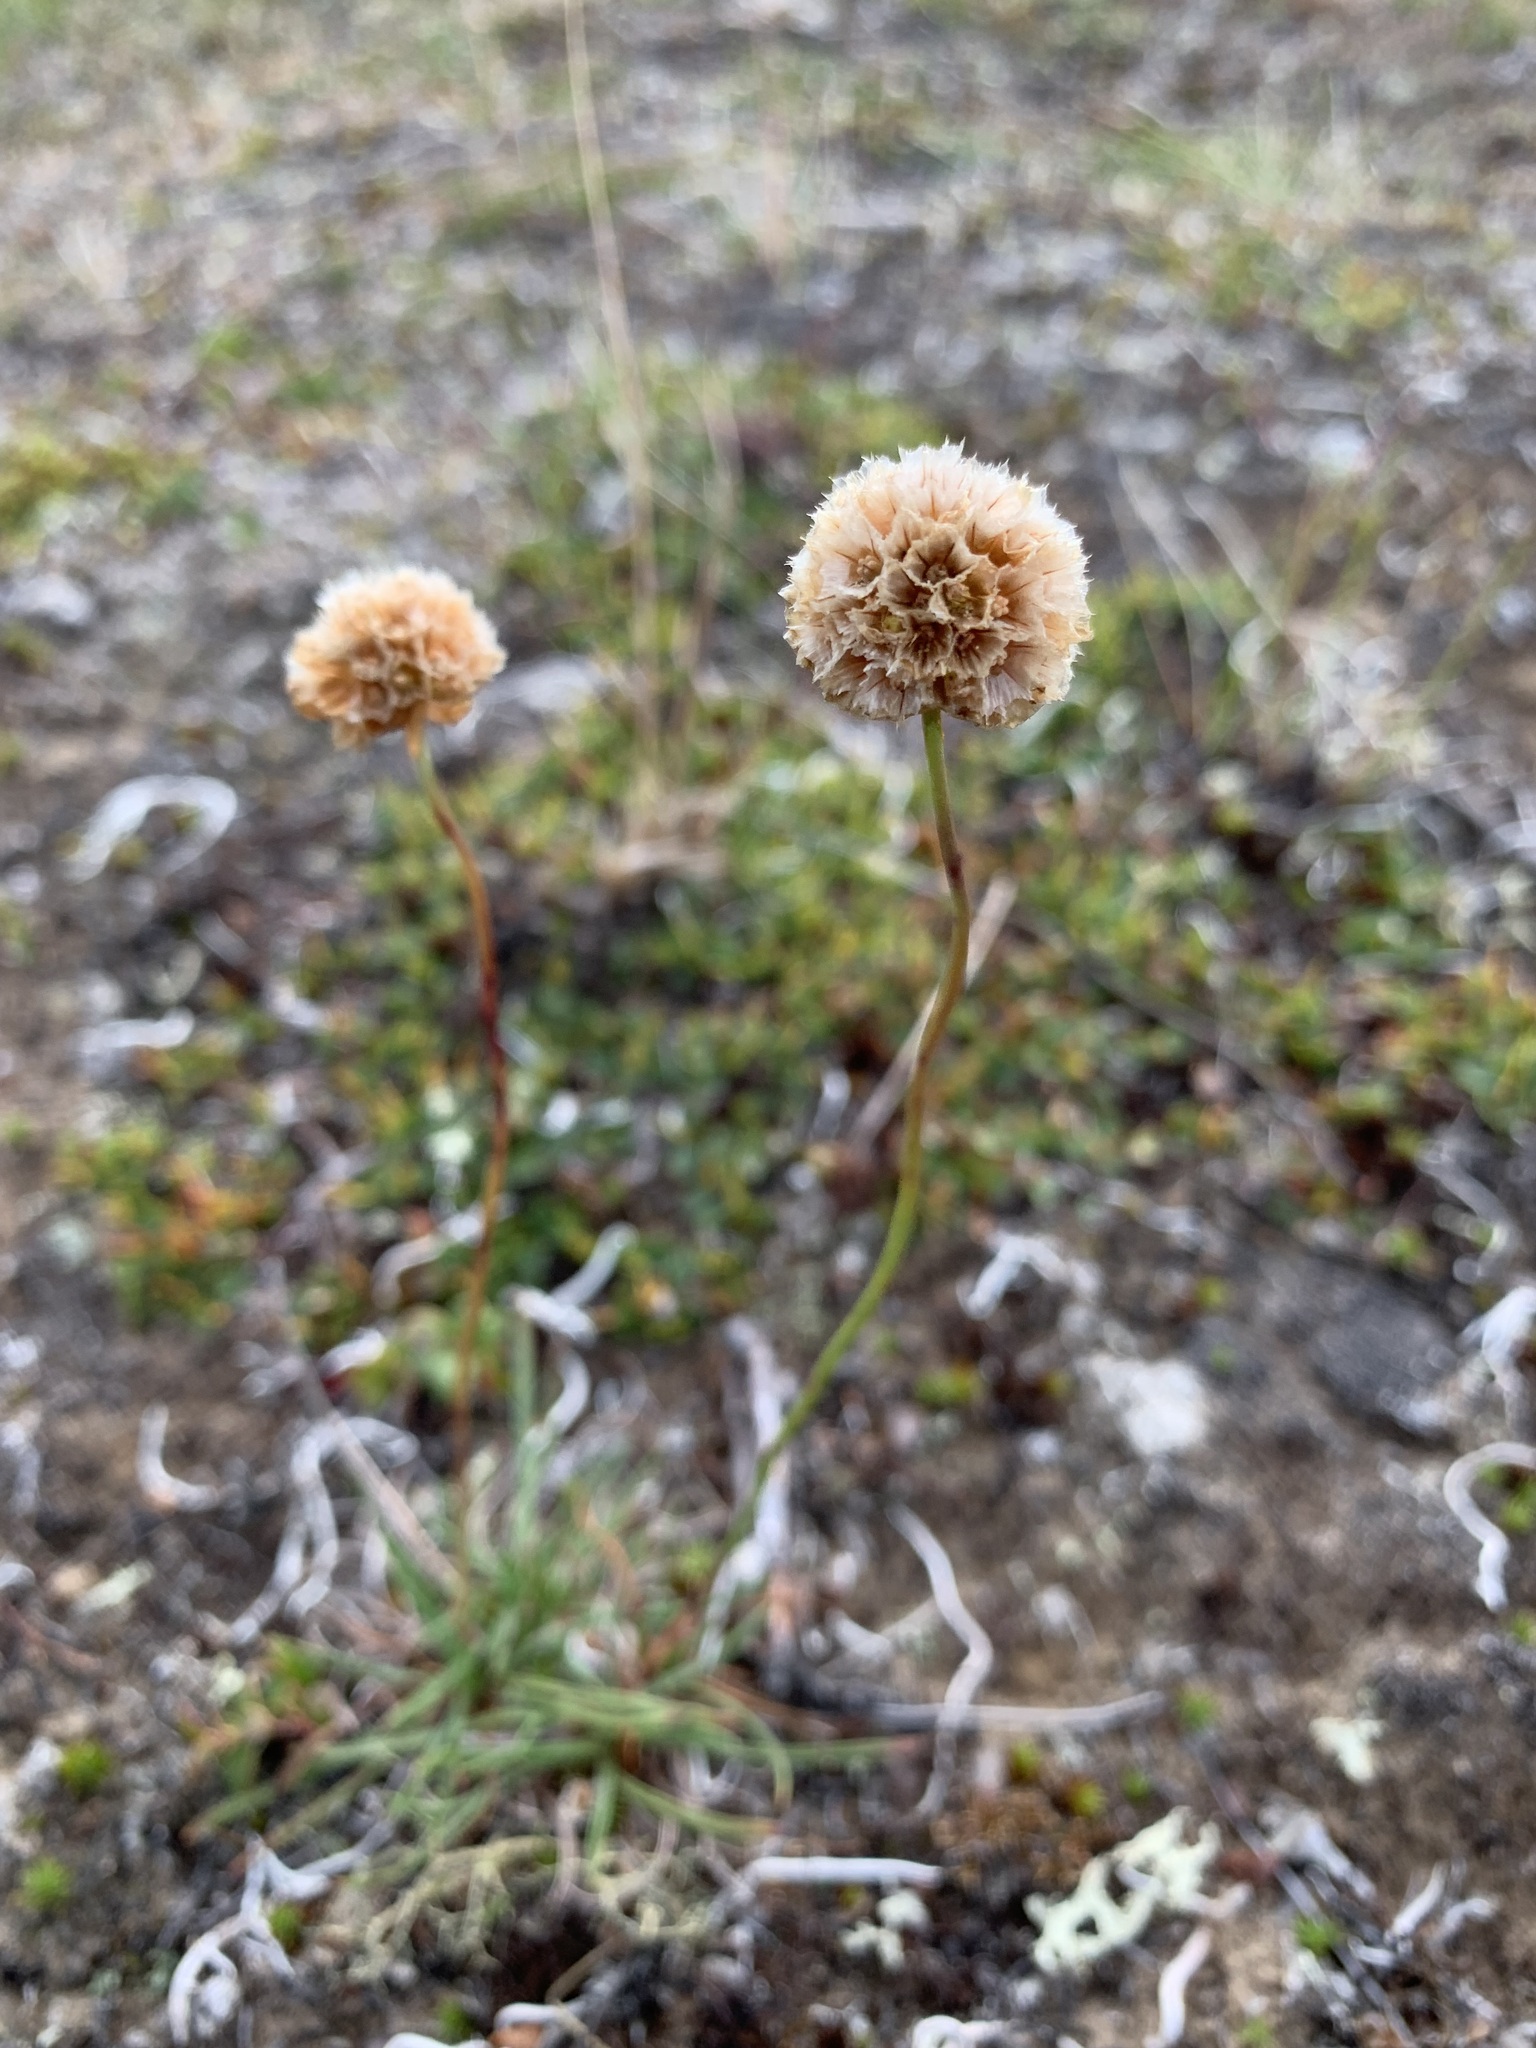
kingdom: Plantae
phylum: Tracheophyta
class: Magnoliopsida
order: Caryophyllales
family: Plumbaginaceae
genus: Armeria
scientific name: Armeria maritima
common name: Thrift
